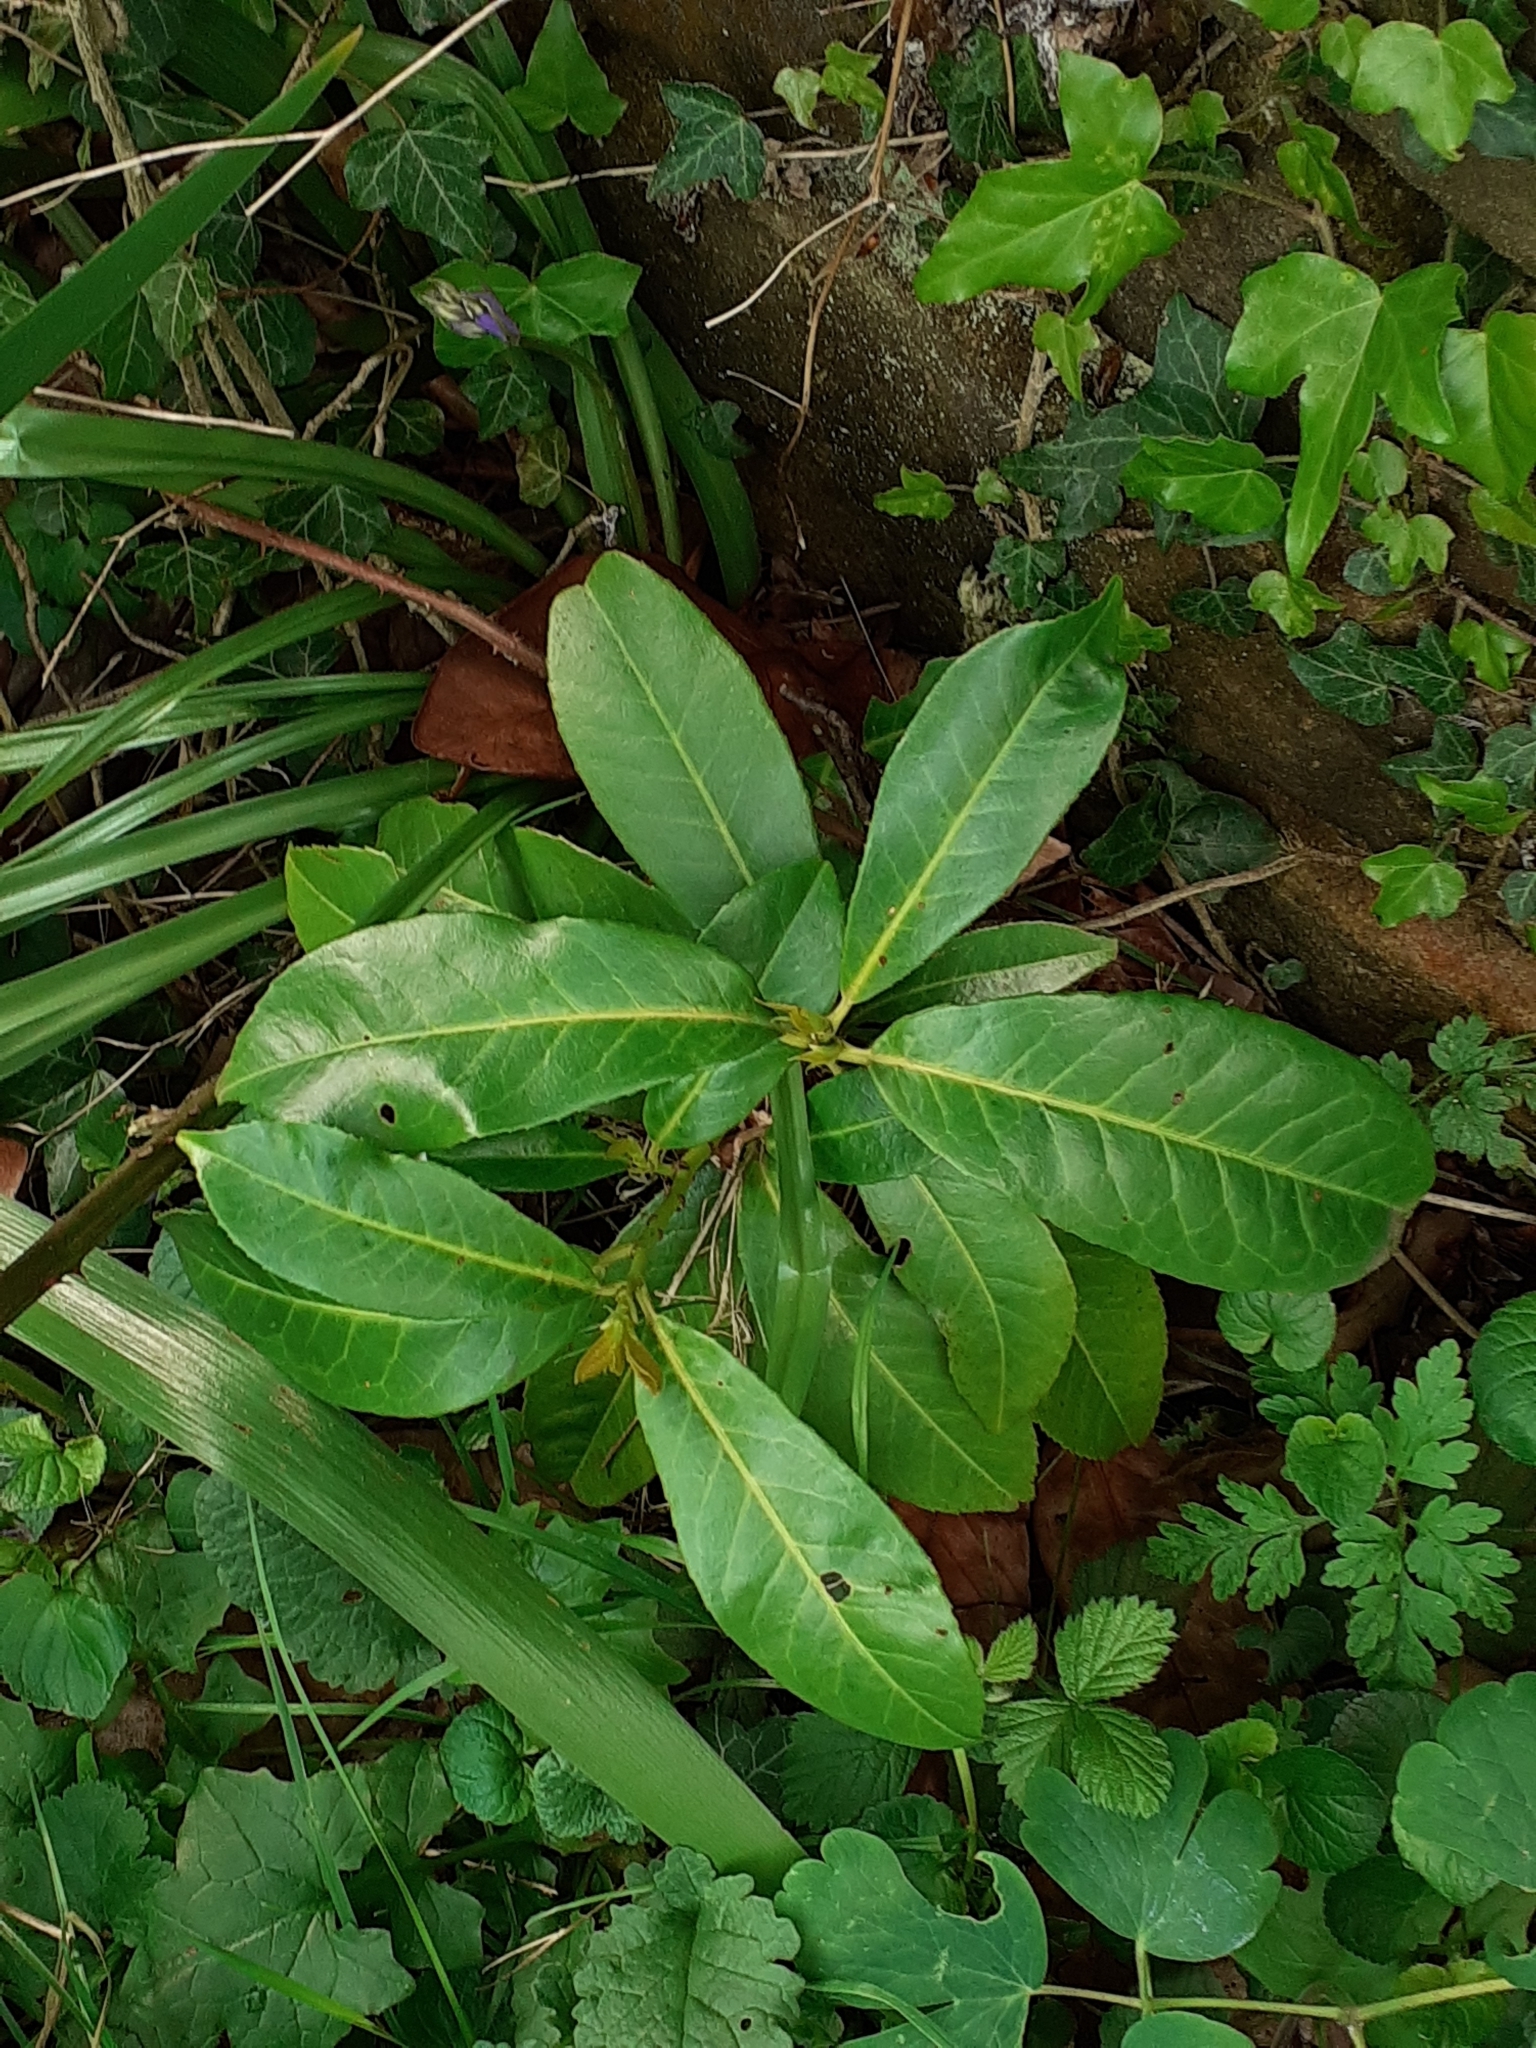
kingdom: Plantae
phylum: Tracheophyta
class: Magnoliopsida
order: Rosales
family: Rosaceae
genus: Prunus
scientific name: Prunus laurocerasus
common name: Cherry laurel
